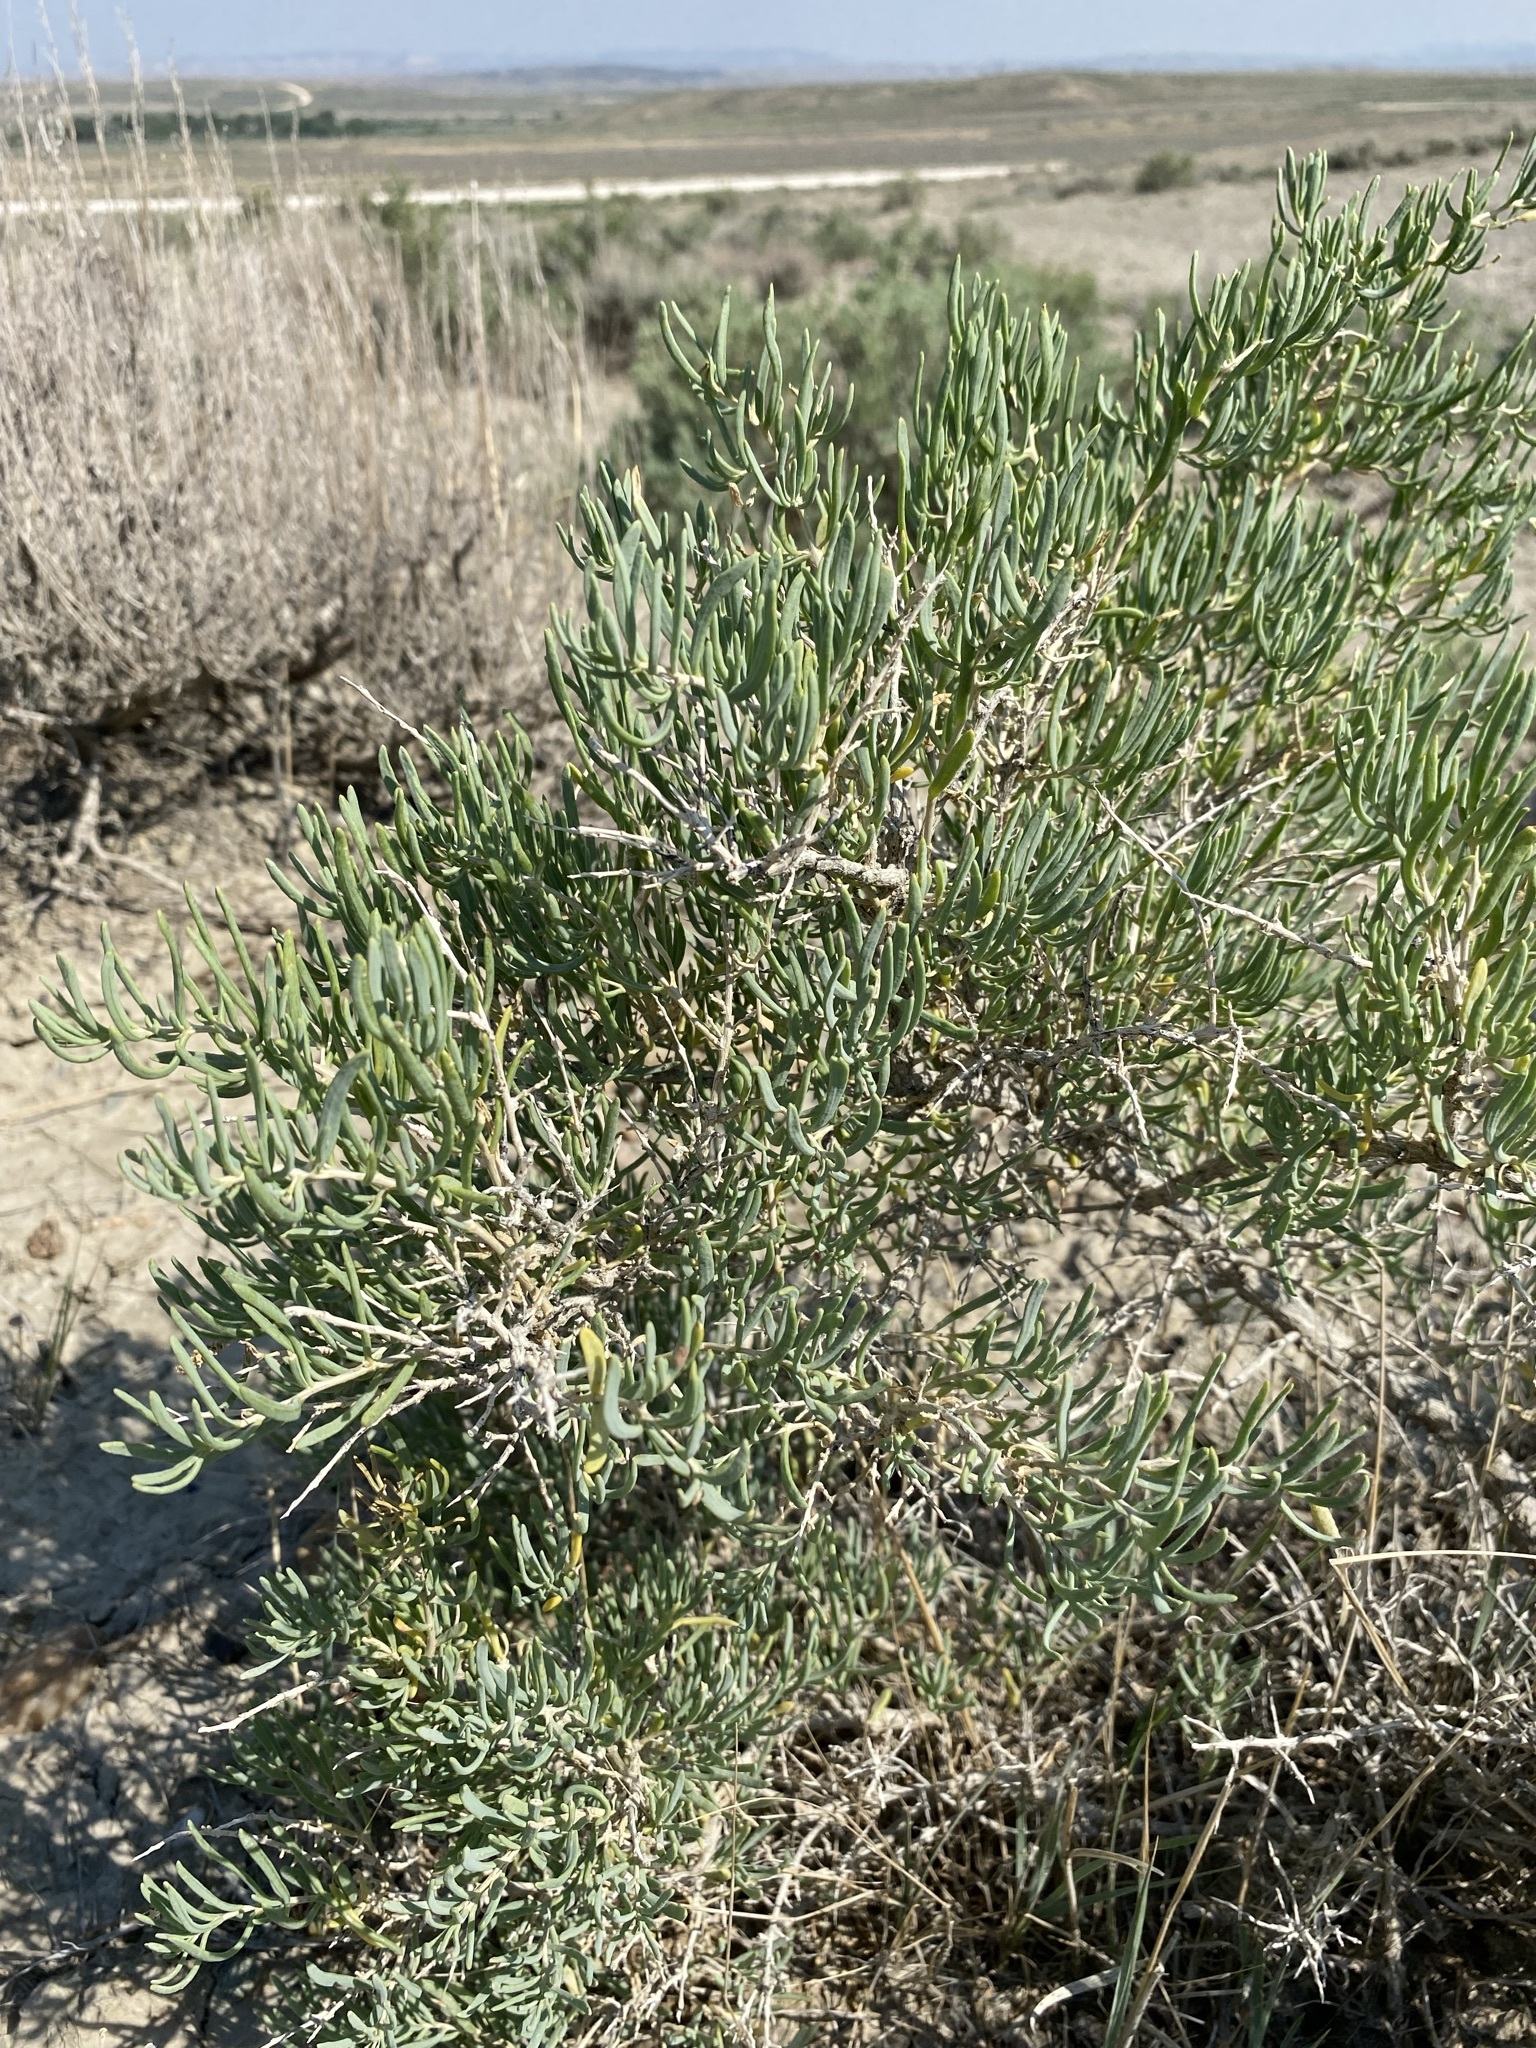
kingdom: Plantae
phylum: Tracheophyta
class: Magnoliopsida
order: Caryophyllales
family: Sarcobataceae
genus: Sarcobatus
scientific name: Sarcobatus vermiculatus
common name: Greasewood
